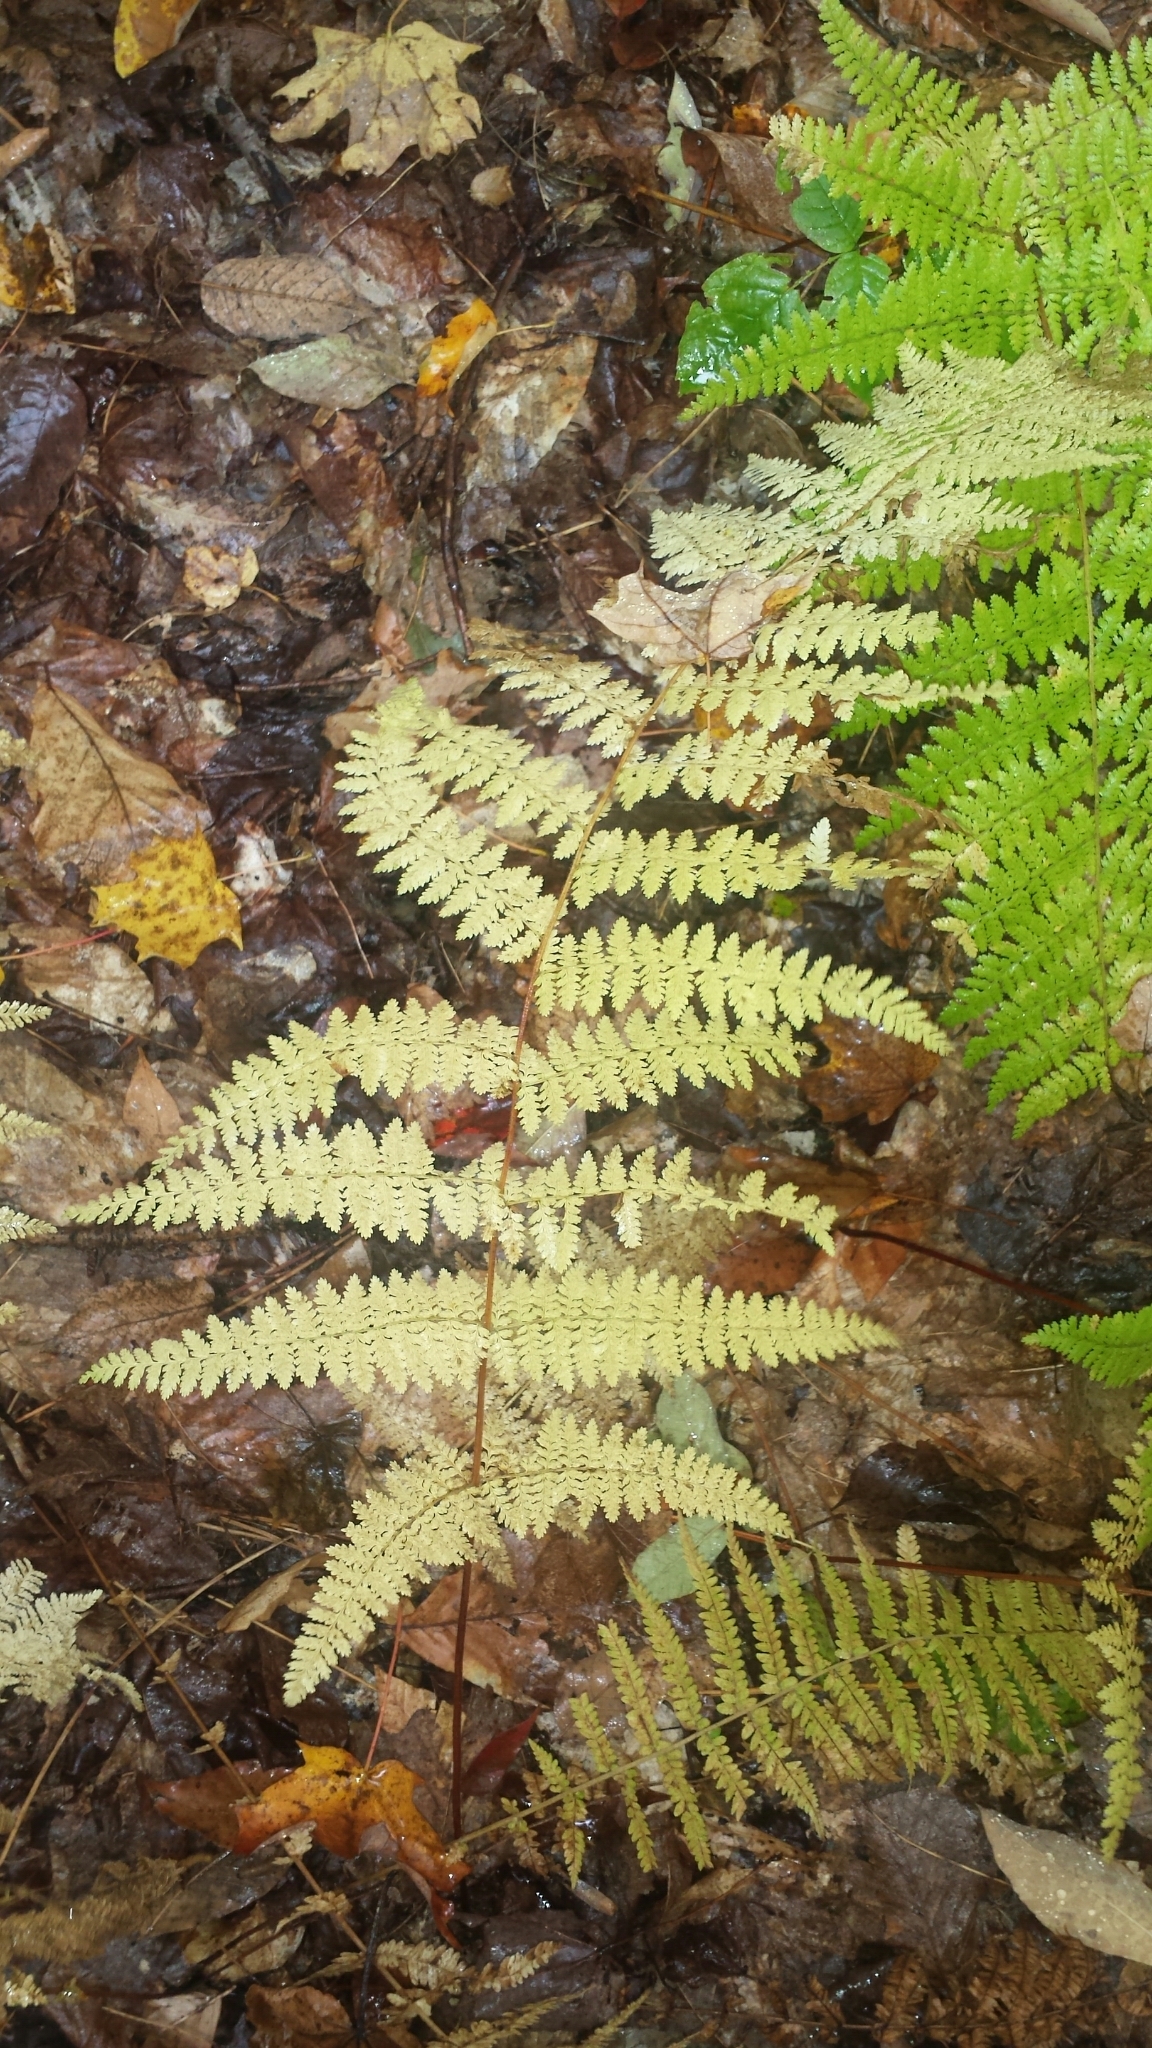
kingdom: Plantae
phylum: Tracheophyta
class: Polypodiopsida
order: Polypodiales
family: Dennstaedtiaceae
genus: Sitobolium
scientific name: Sitobolium punctilobum
